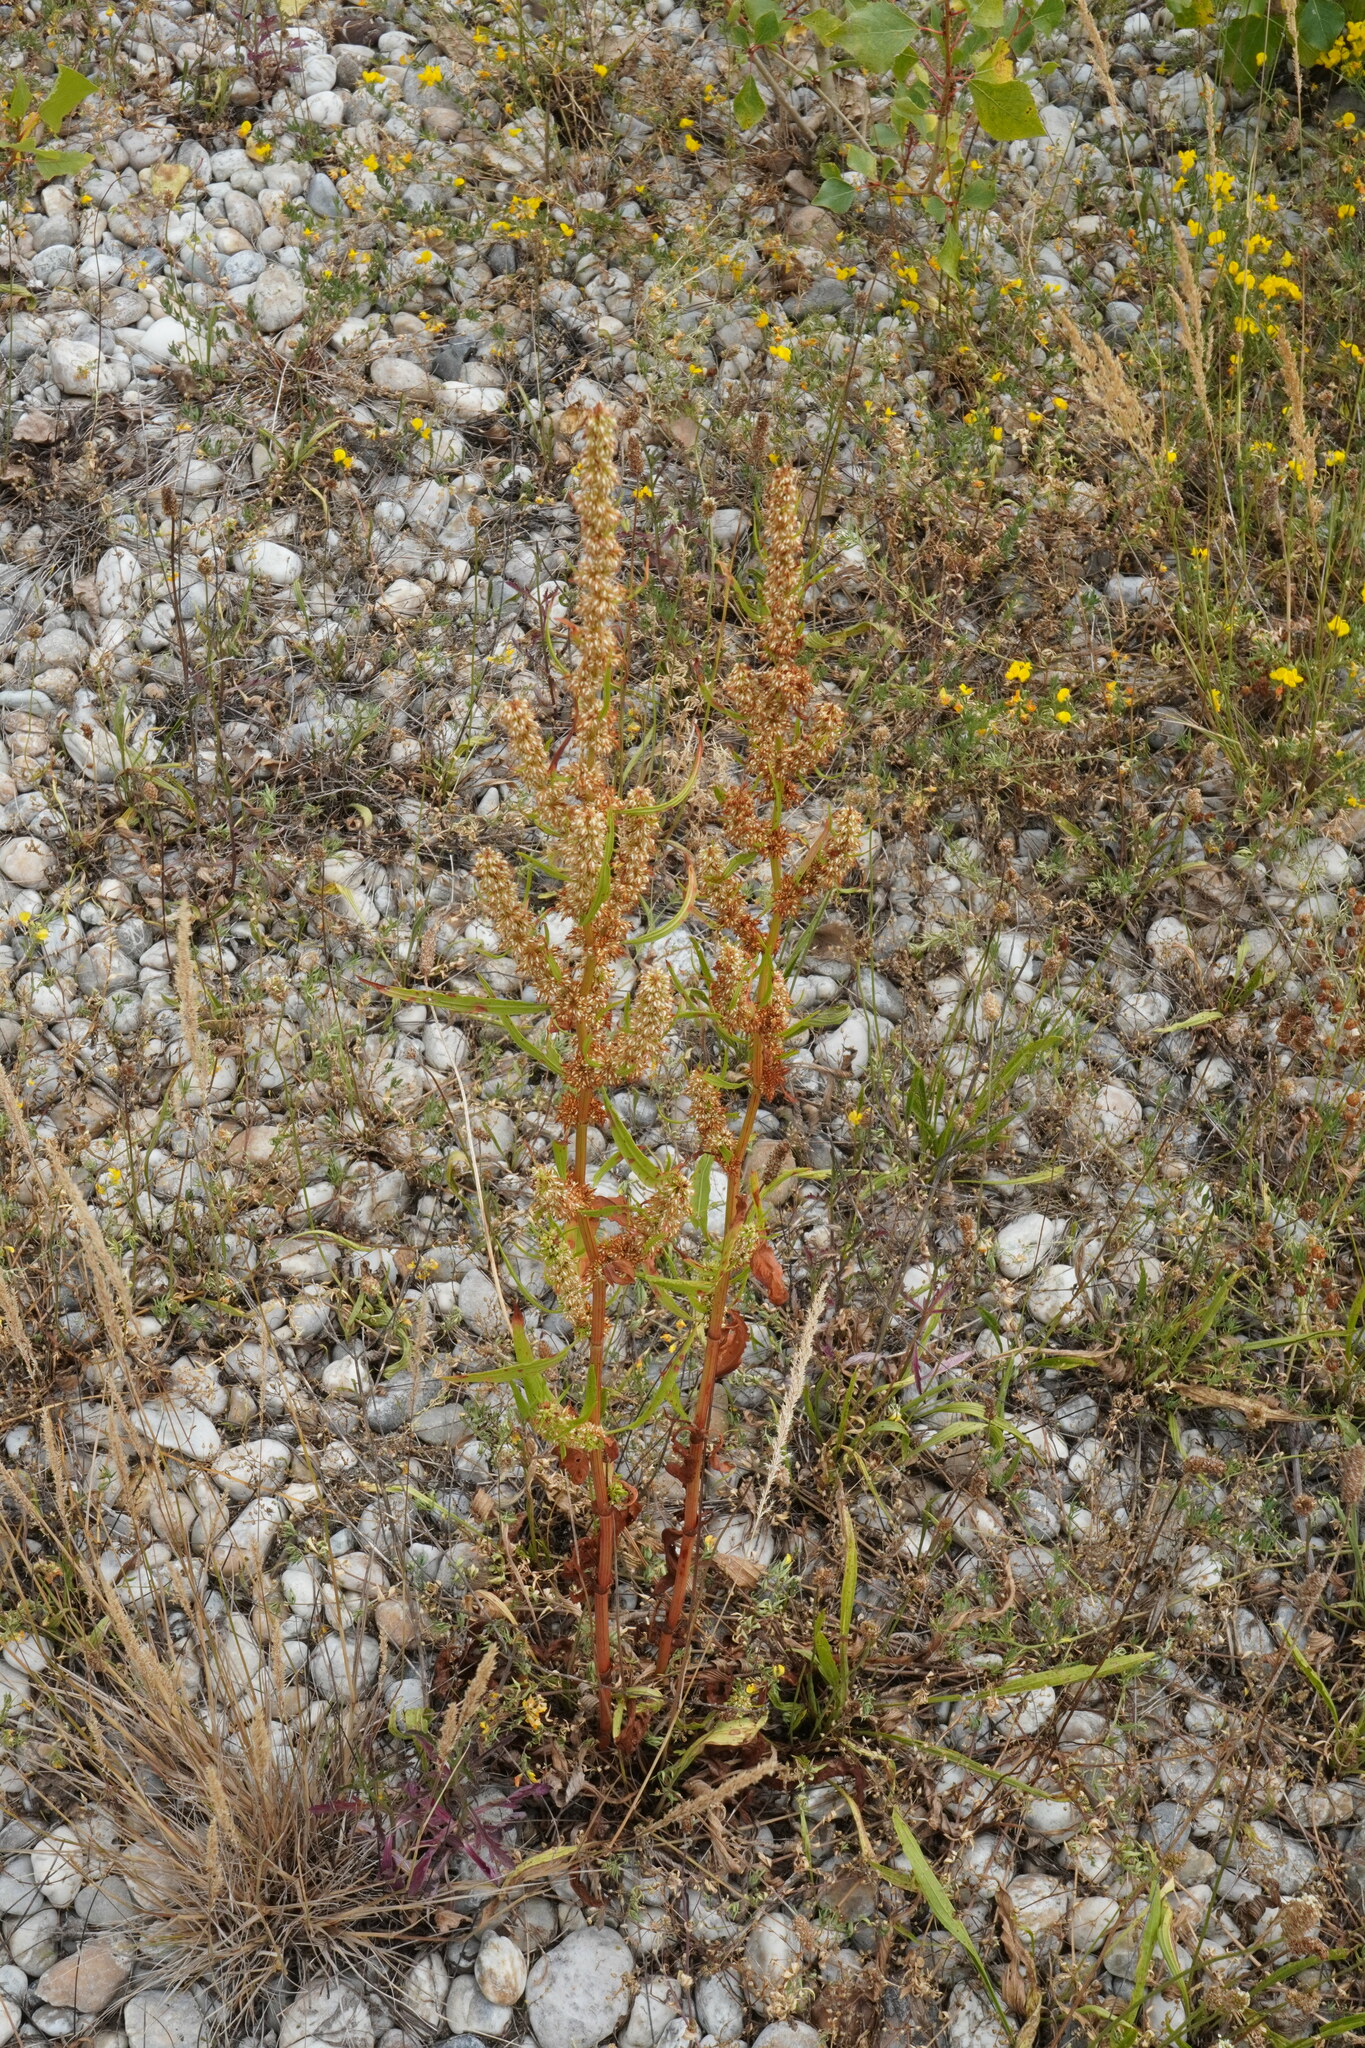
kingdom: Plantae
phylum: Tracheophyta
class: Magnoliopsida
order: Caryophyllales
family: Polygonaceae
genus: Rumex
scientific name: Rumex palustris
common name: Marsh dock
